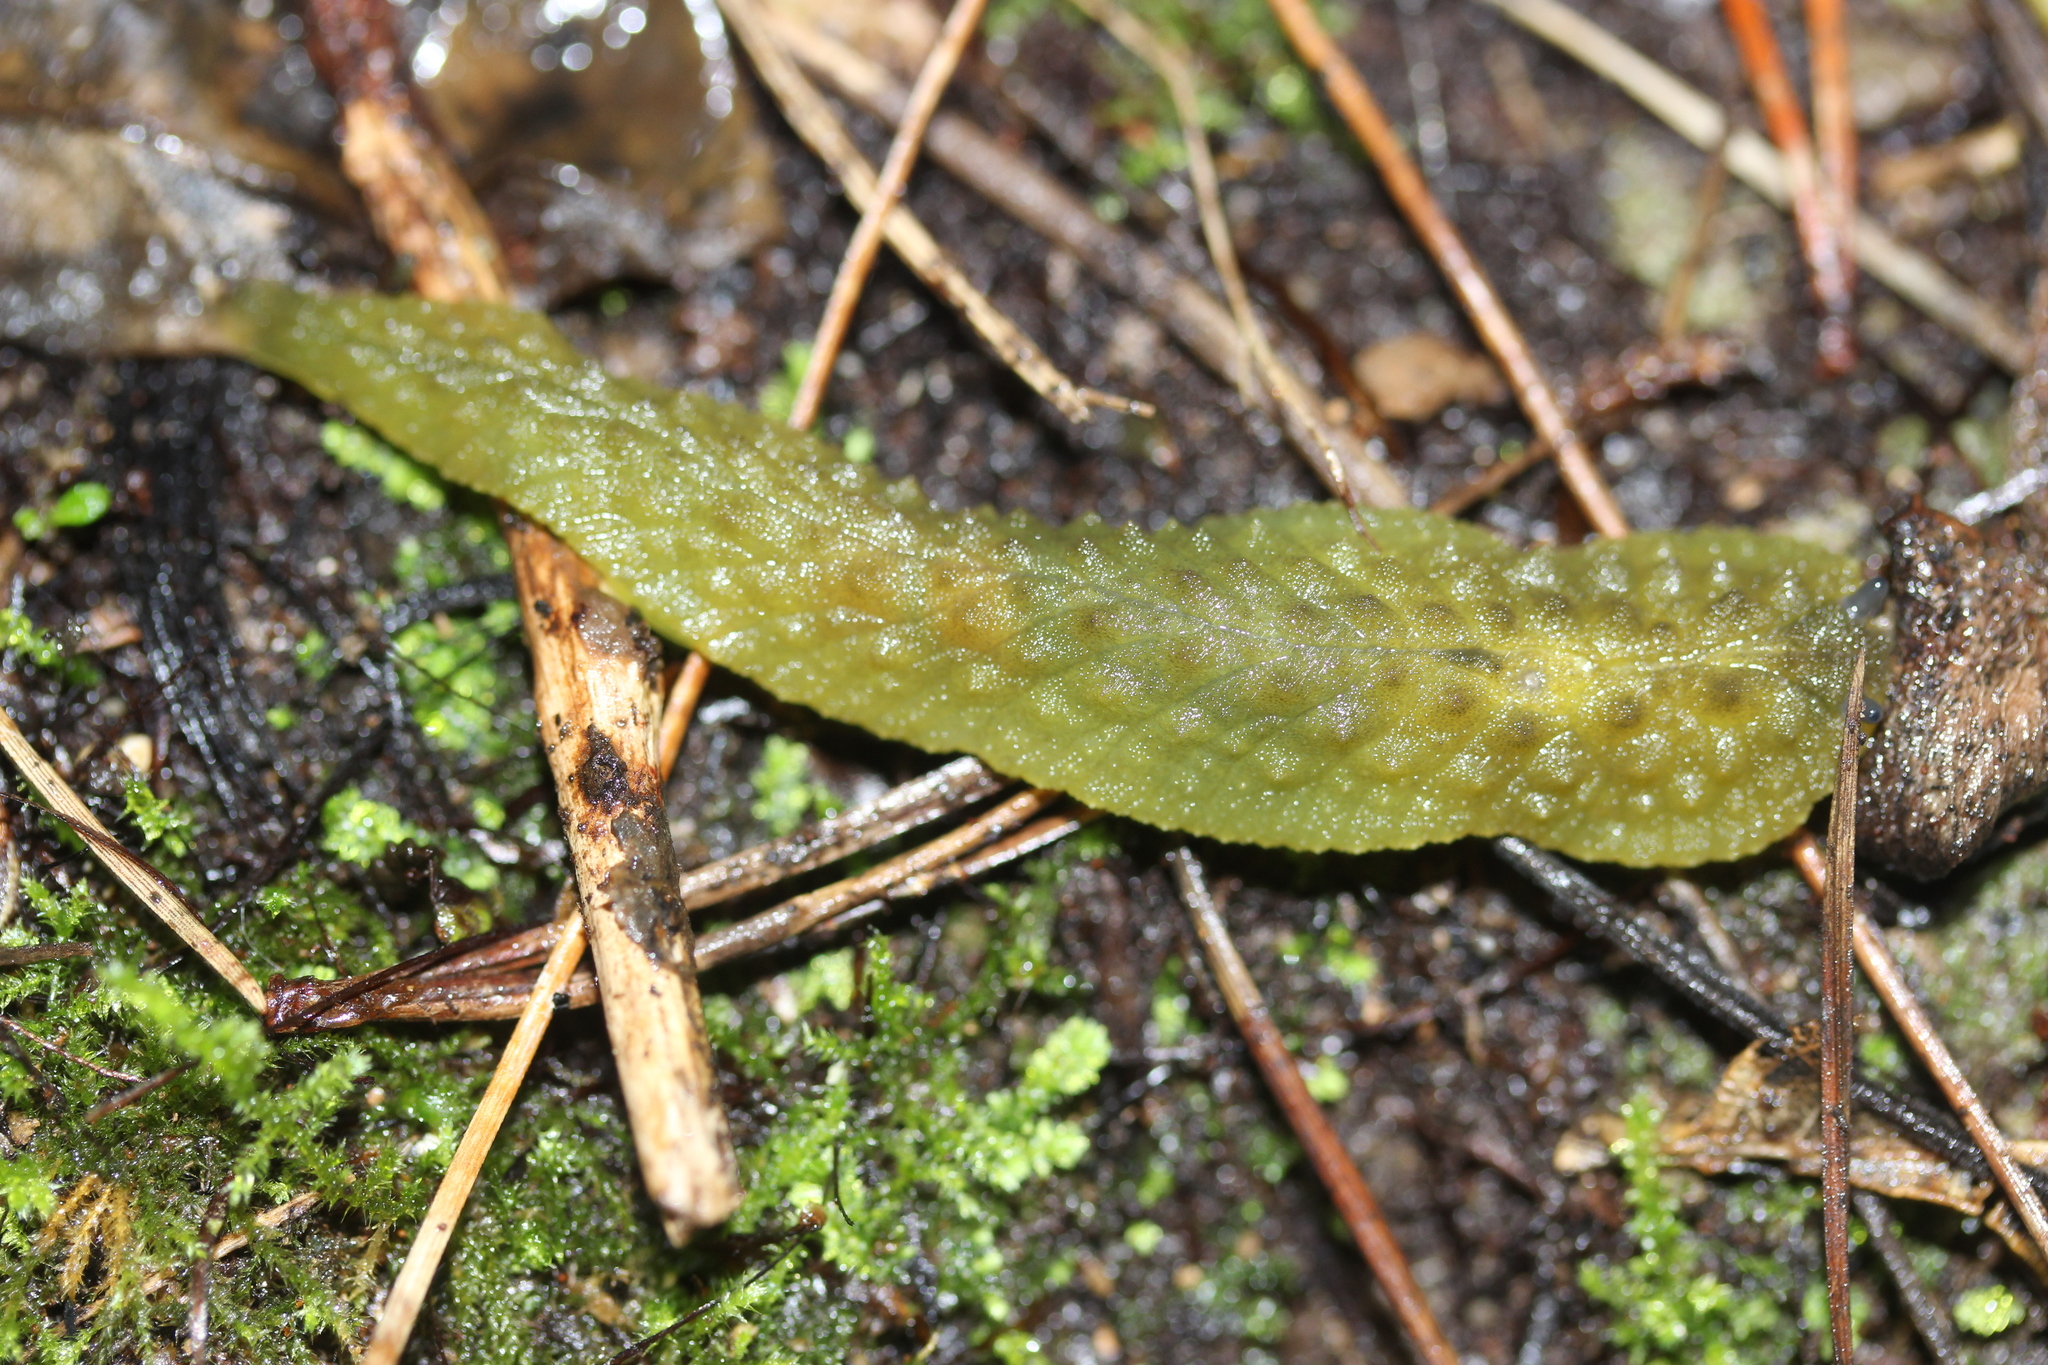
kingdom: Animalia
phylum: Mollusca
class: Gastropoda
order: Stylommatophora
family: Athoracophoridae
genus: Athoracophorus
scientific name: Athoracophorus papillatus
